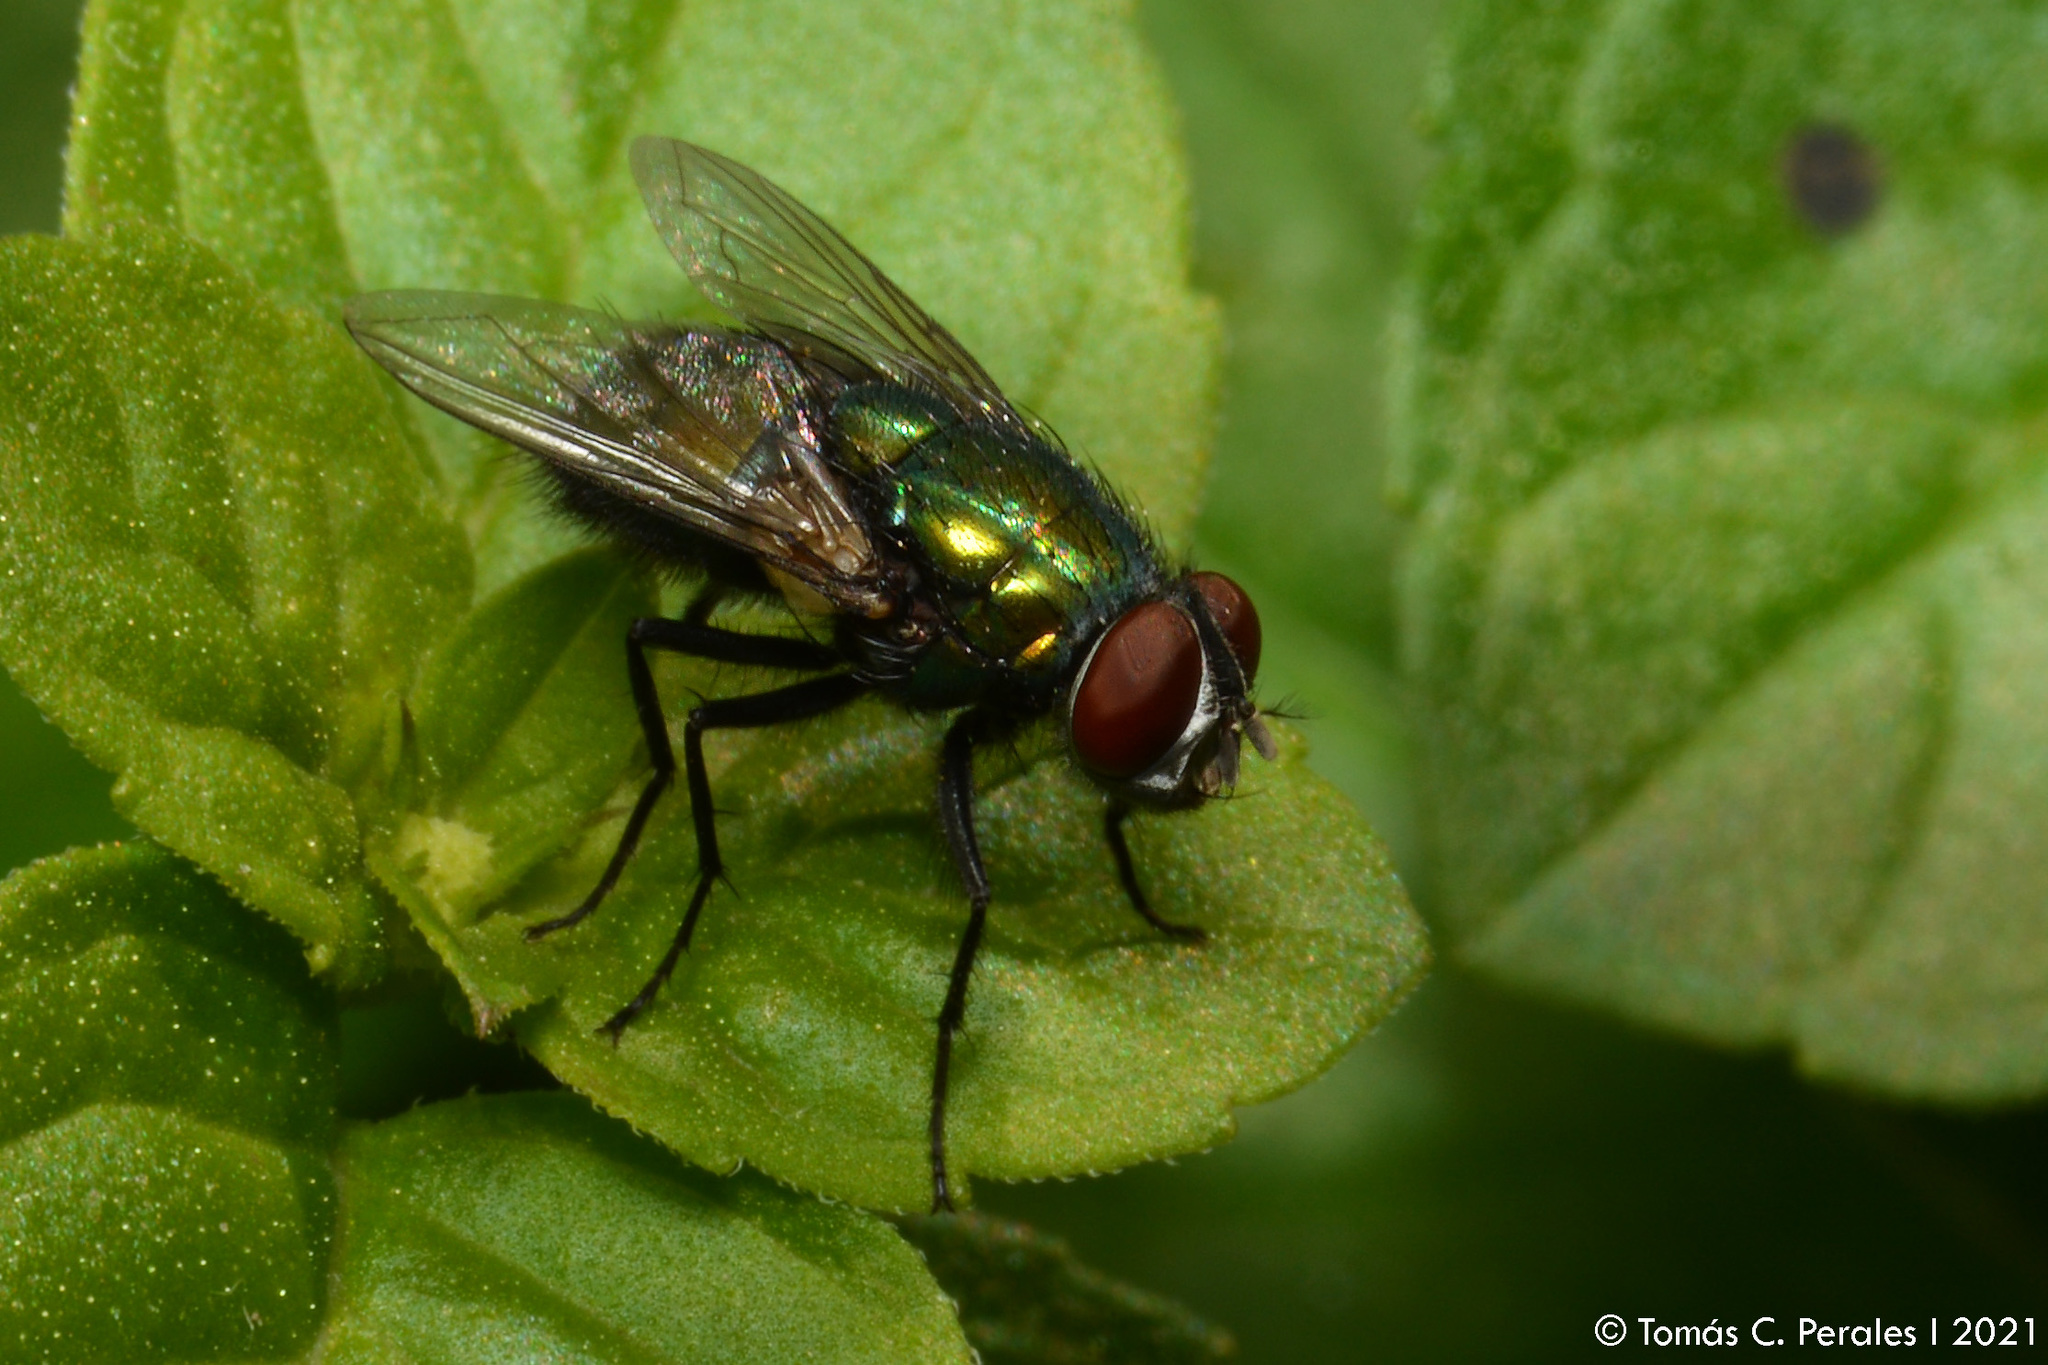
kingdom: Animalia
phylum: Arthropoda
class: Insecta
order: Diptera
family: Calliphoridae
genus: Lucilia
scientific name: Lucilia sericata
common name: Blow fly
